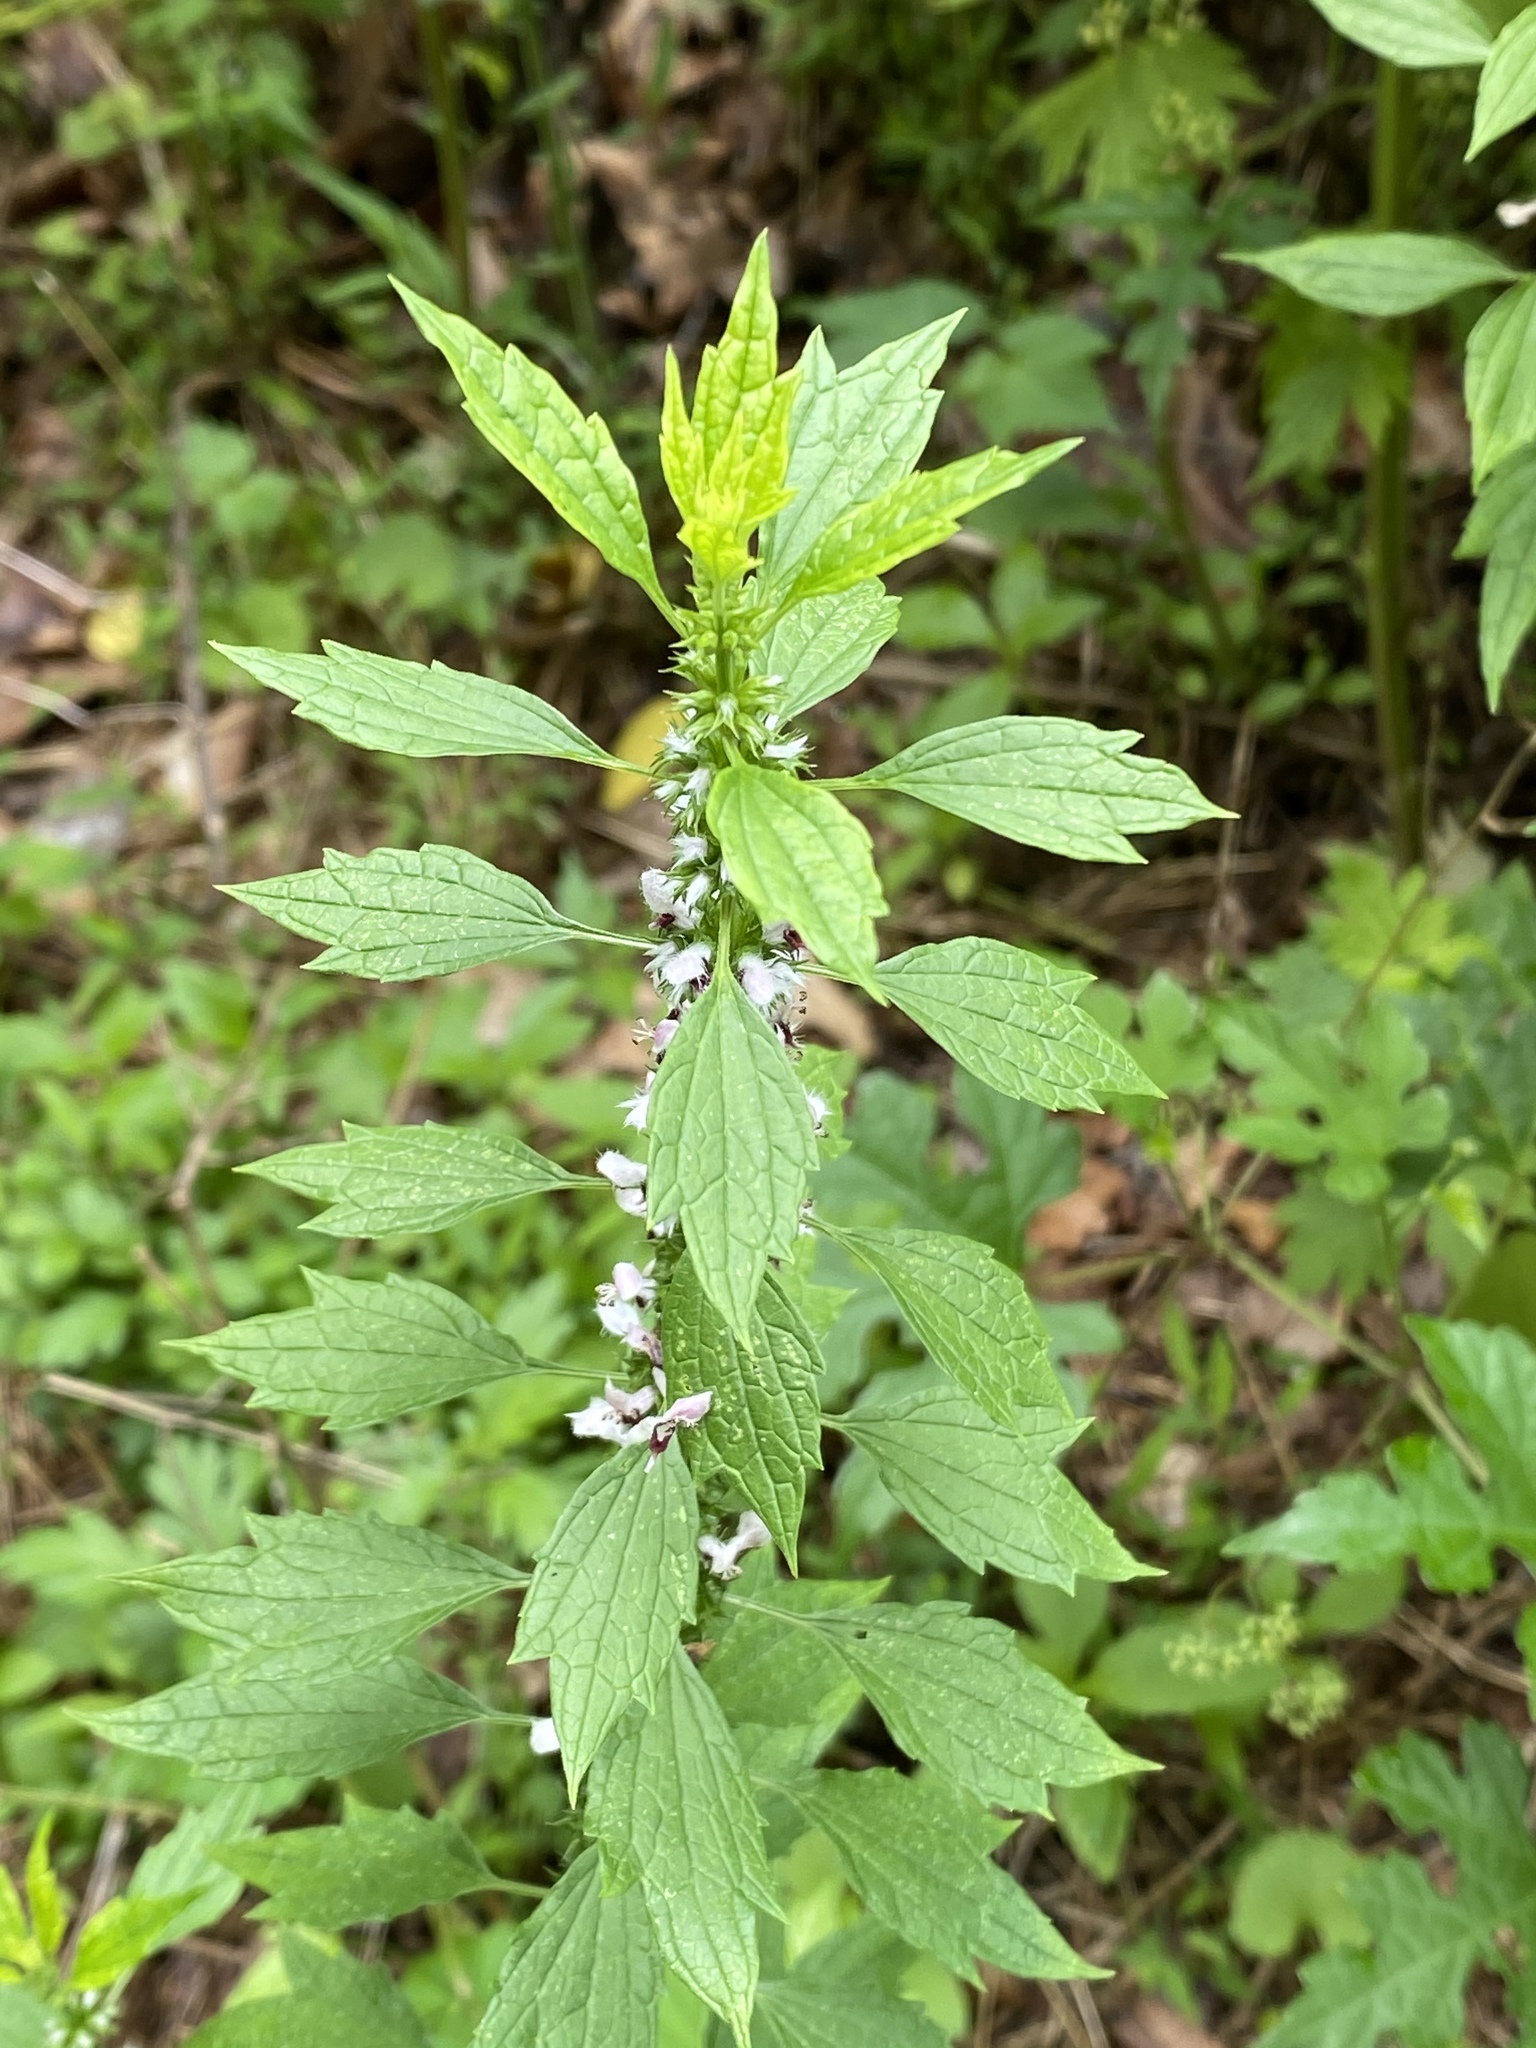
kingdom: Plantae
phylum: Tracheophyta
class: Magnoliopsida
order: Lamiales
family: Lamiaceae
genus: Leonurus
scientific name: Leonurus cardiaca
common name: Motherwort
